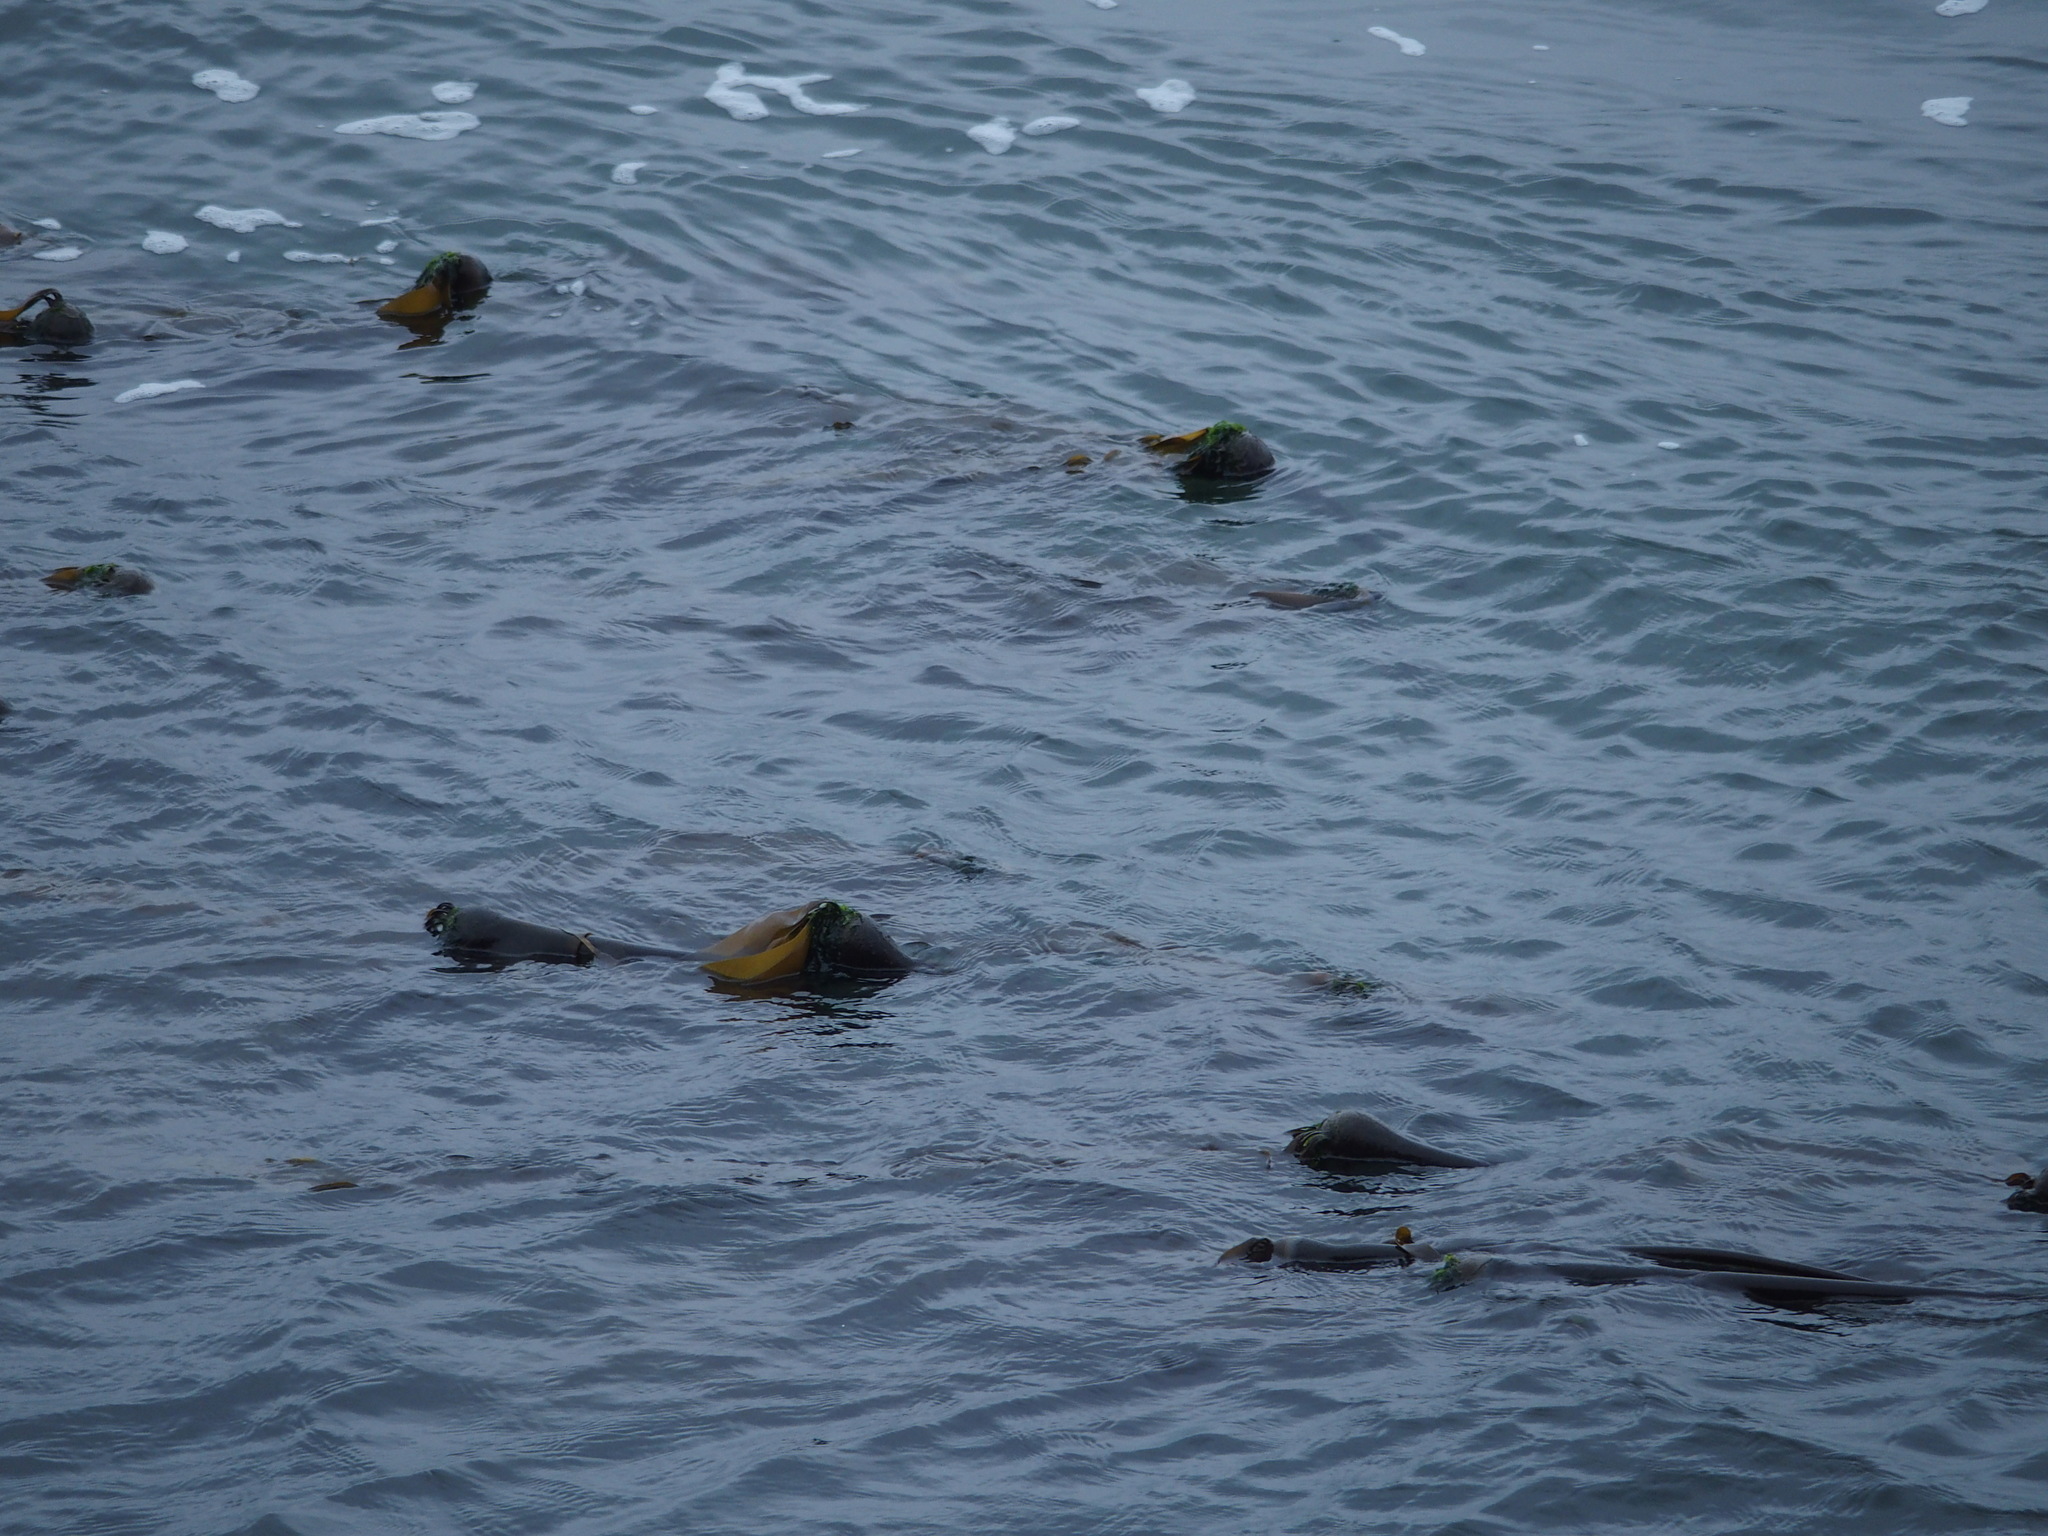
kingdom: Chromista
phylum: Ochrophyta
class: Phaeophyceae
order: Laminariales
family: Laminariaceae
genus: Nereocystis
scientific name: Nereocystis luetkeana
